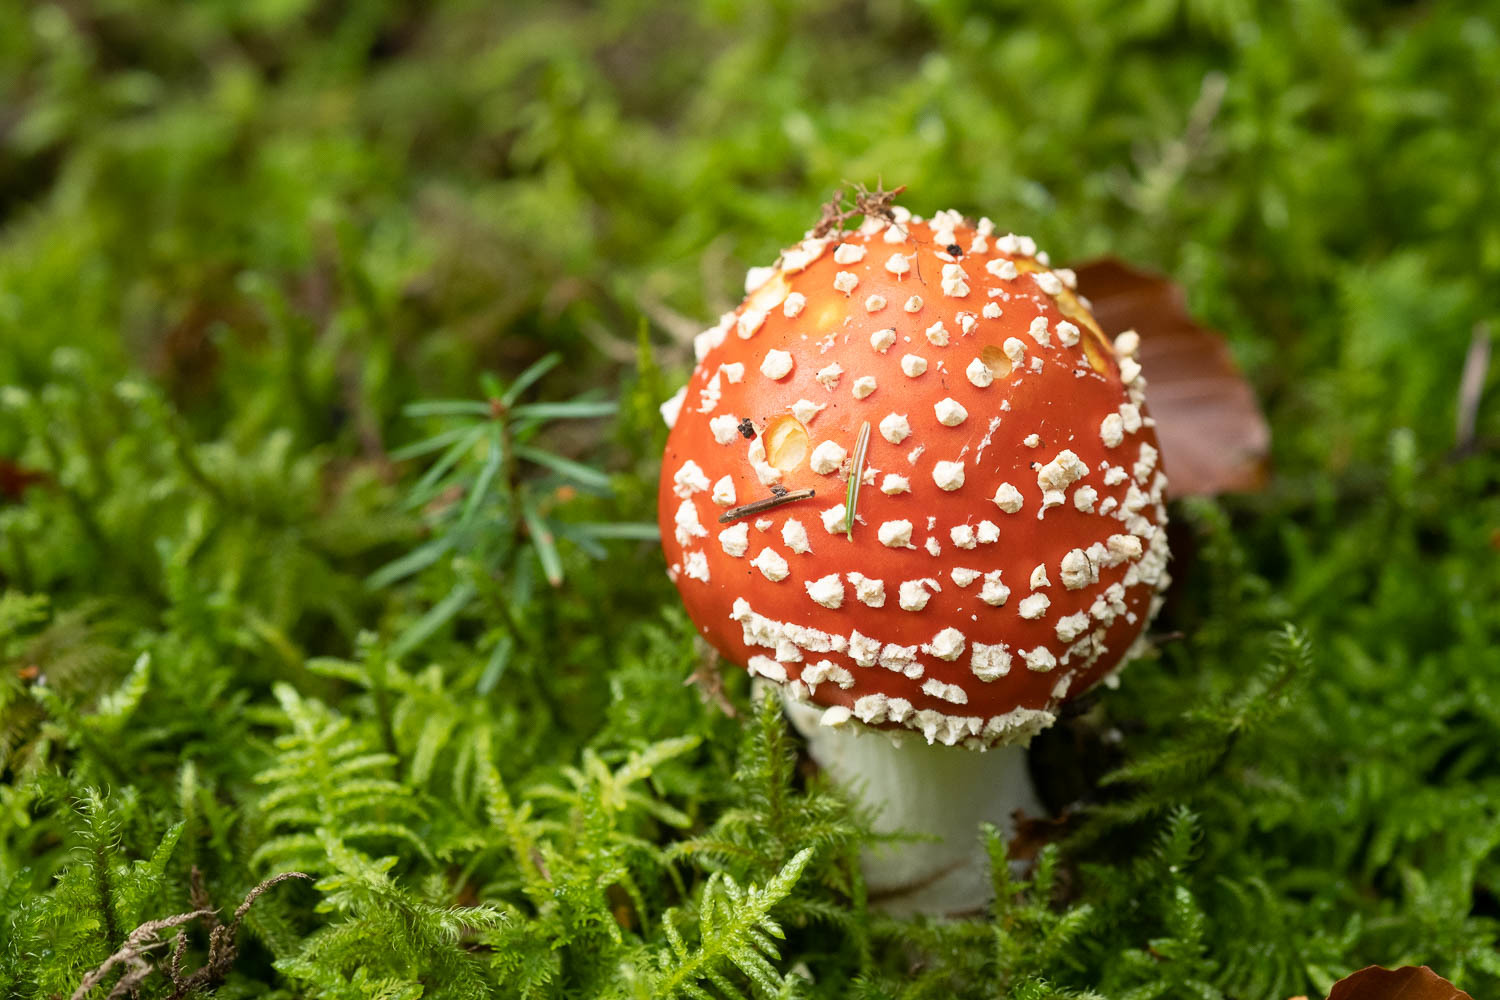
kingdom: Fungi
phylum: Basidiomycota
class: Agaricomycetes
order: Agaricales
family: Amanitaceae
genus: Amanita
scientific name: Amanita muscaria
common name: Fly agaric
